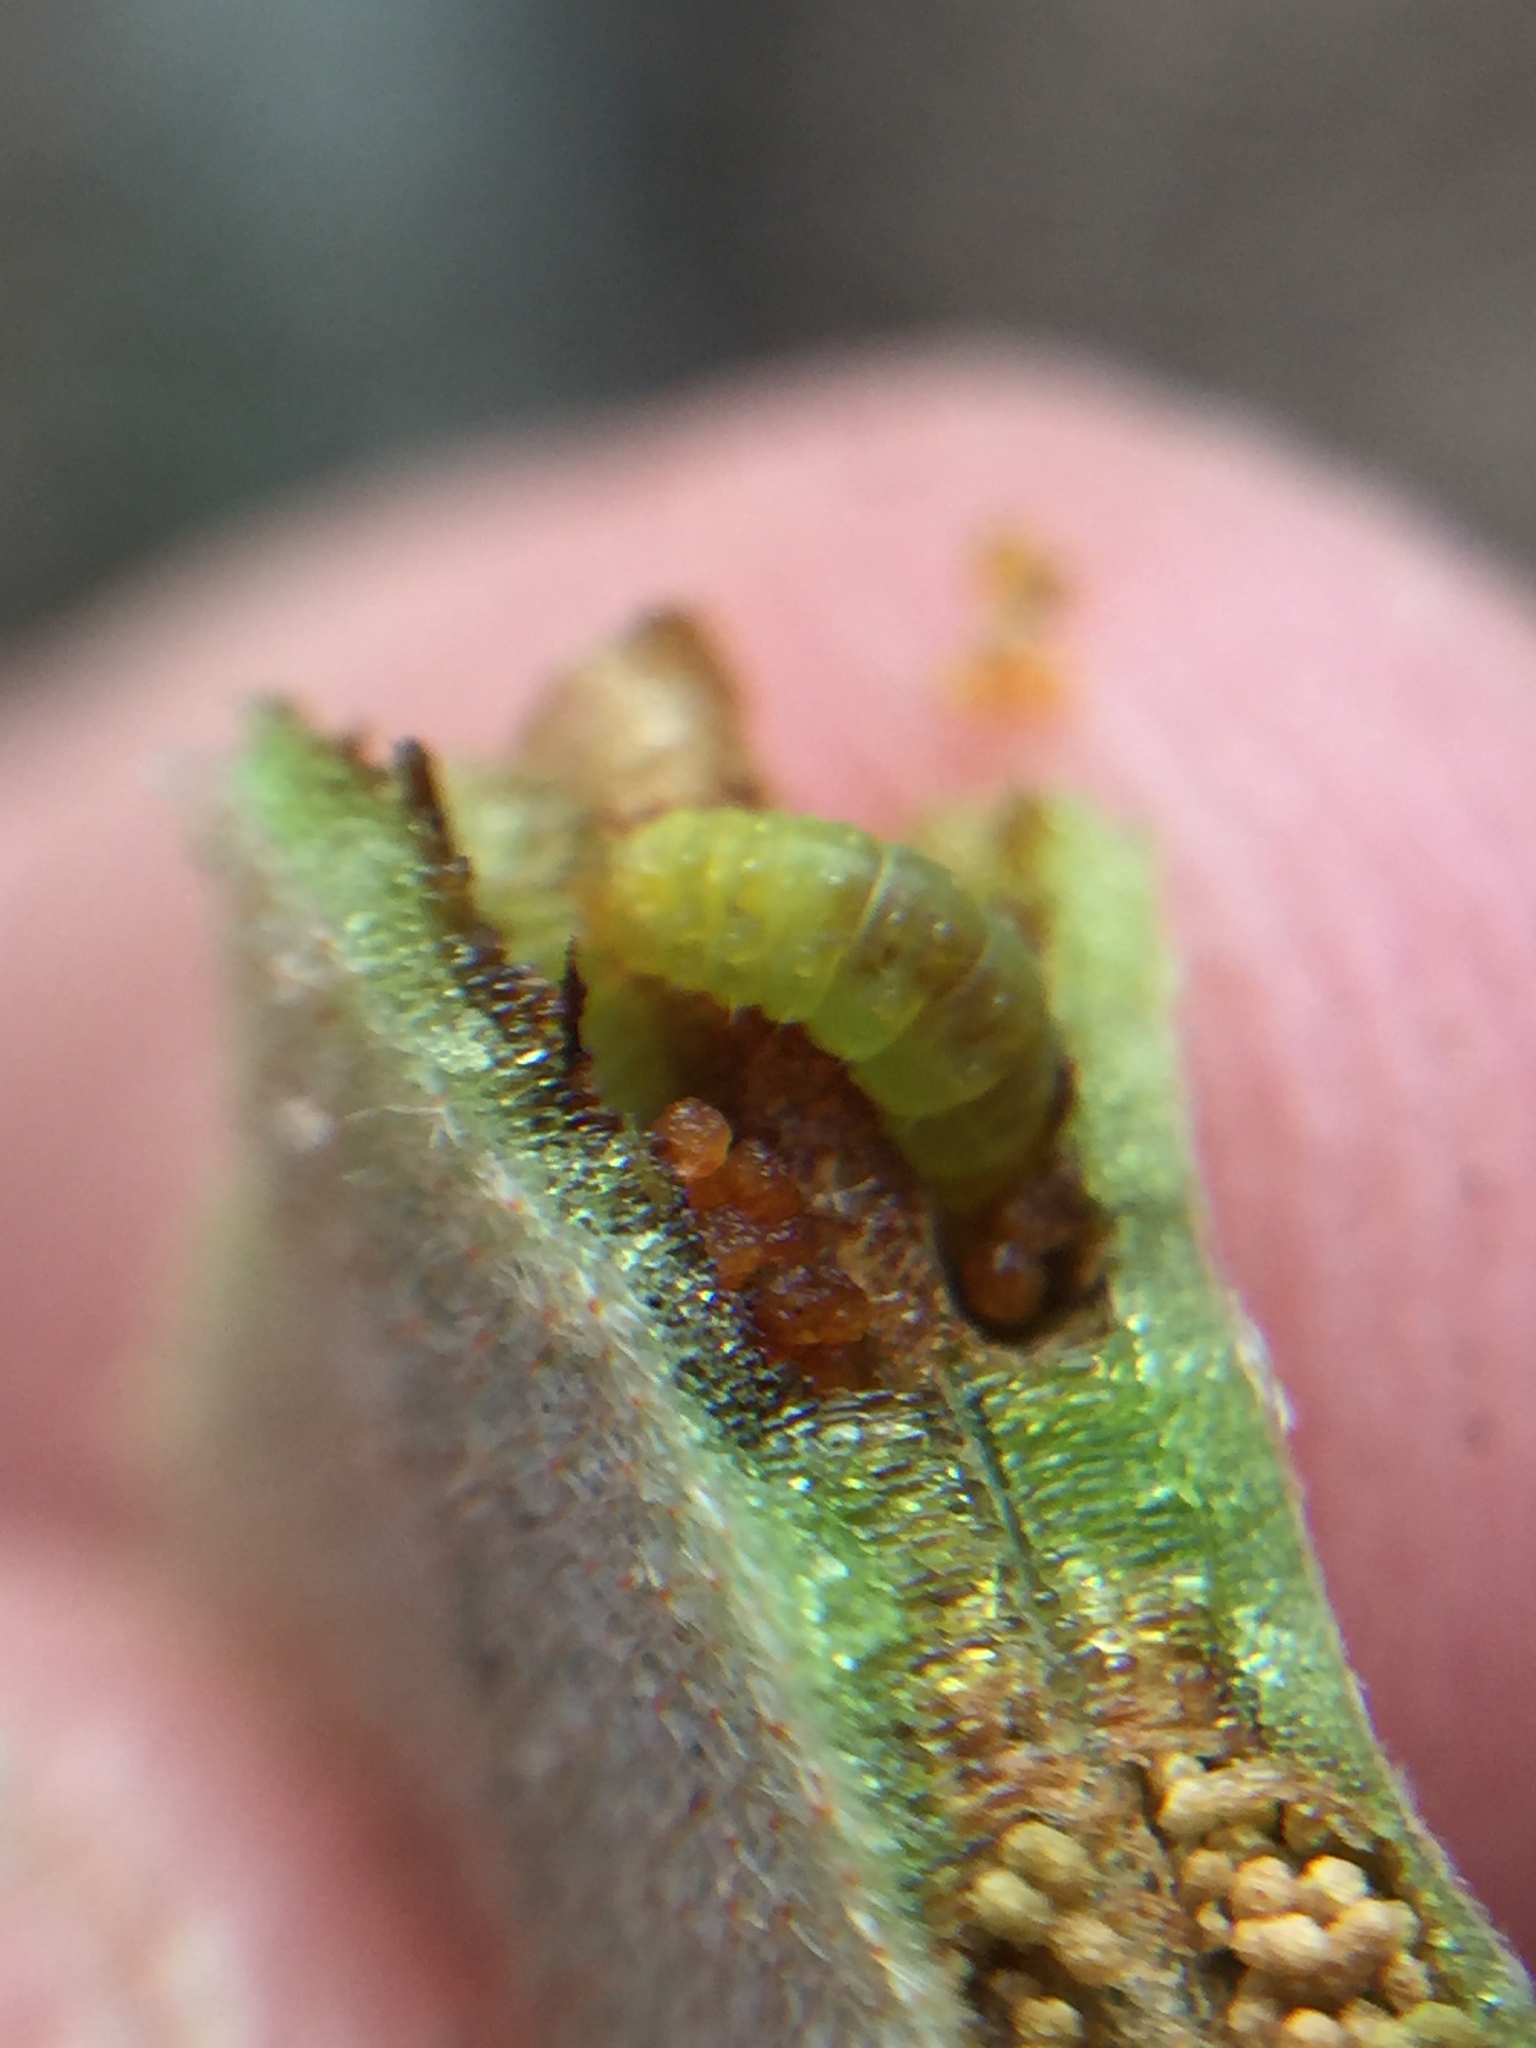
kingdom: Animalia
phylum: Arthropoda
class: Insecta
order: Lepidoptera
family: Tortricidae
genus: Philocryptica
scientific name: Philocryptica polypodii
